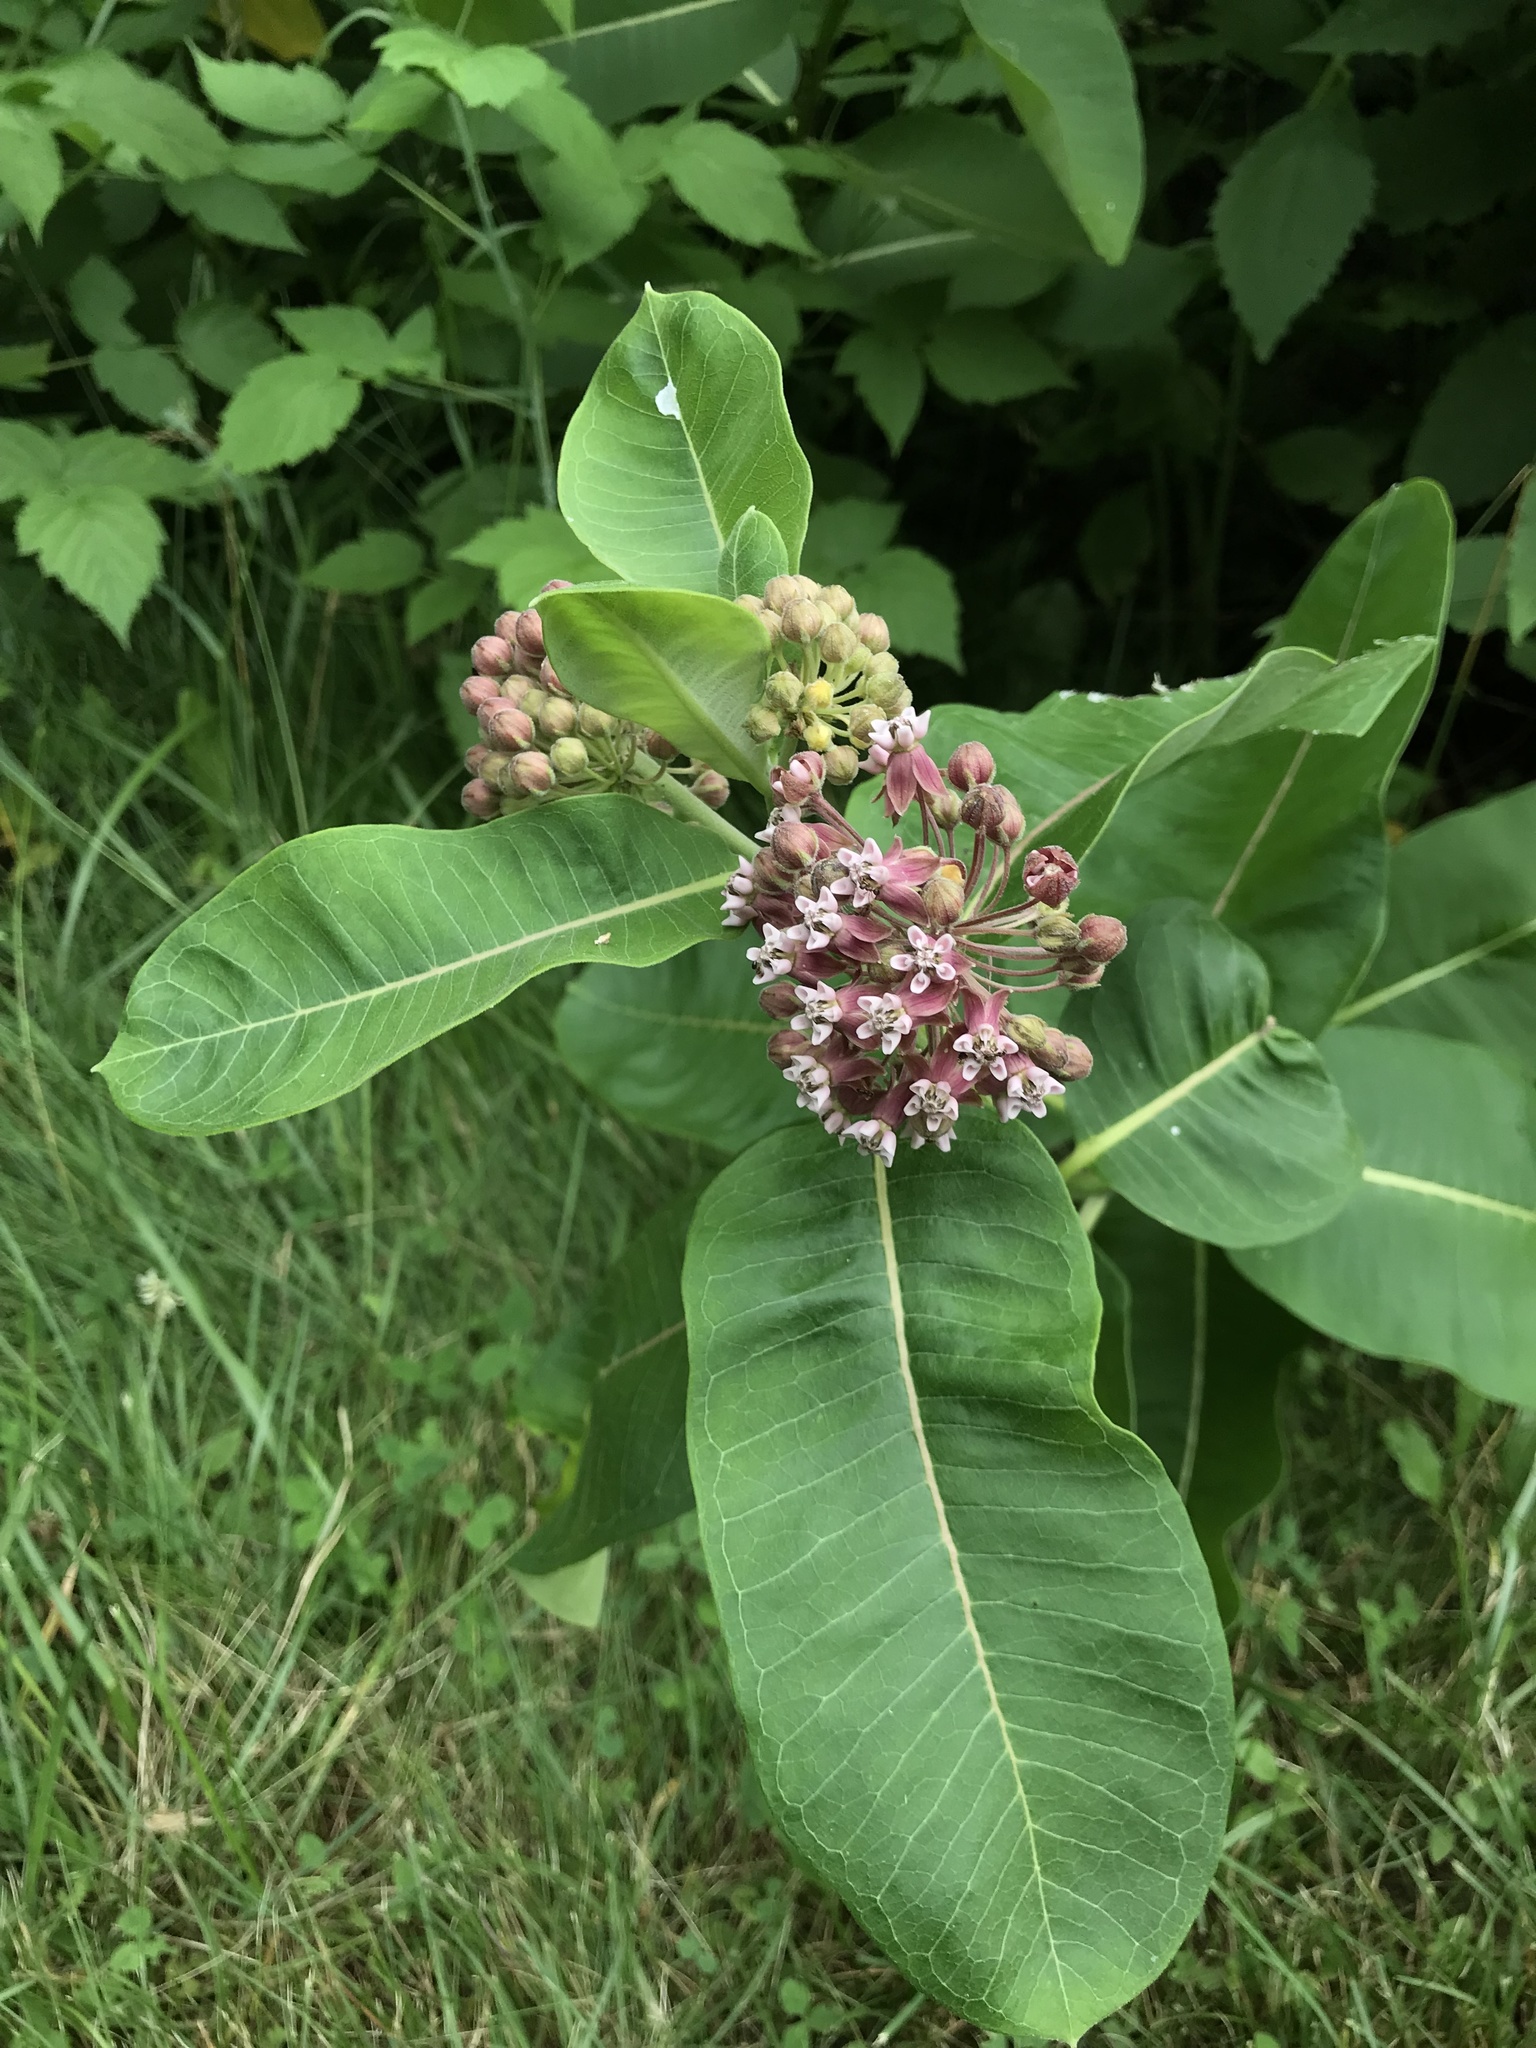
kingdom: Plantae
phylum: Tracheophyta
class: Magnoliopsida
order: Gentianales
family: Apocynaceae
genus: Asclepias
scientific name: Asclepias syriaca
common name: Common milkweed
